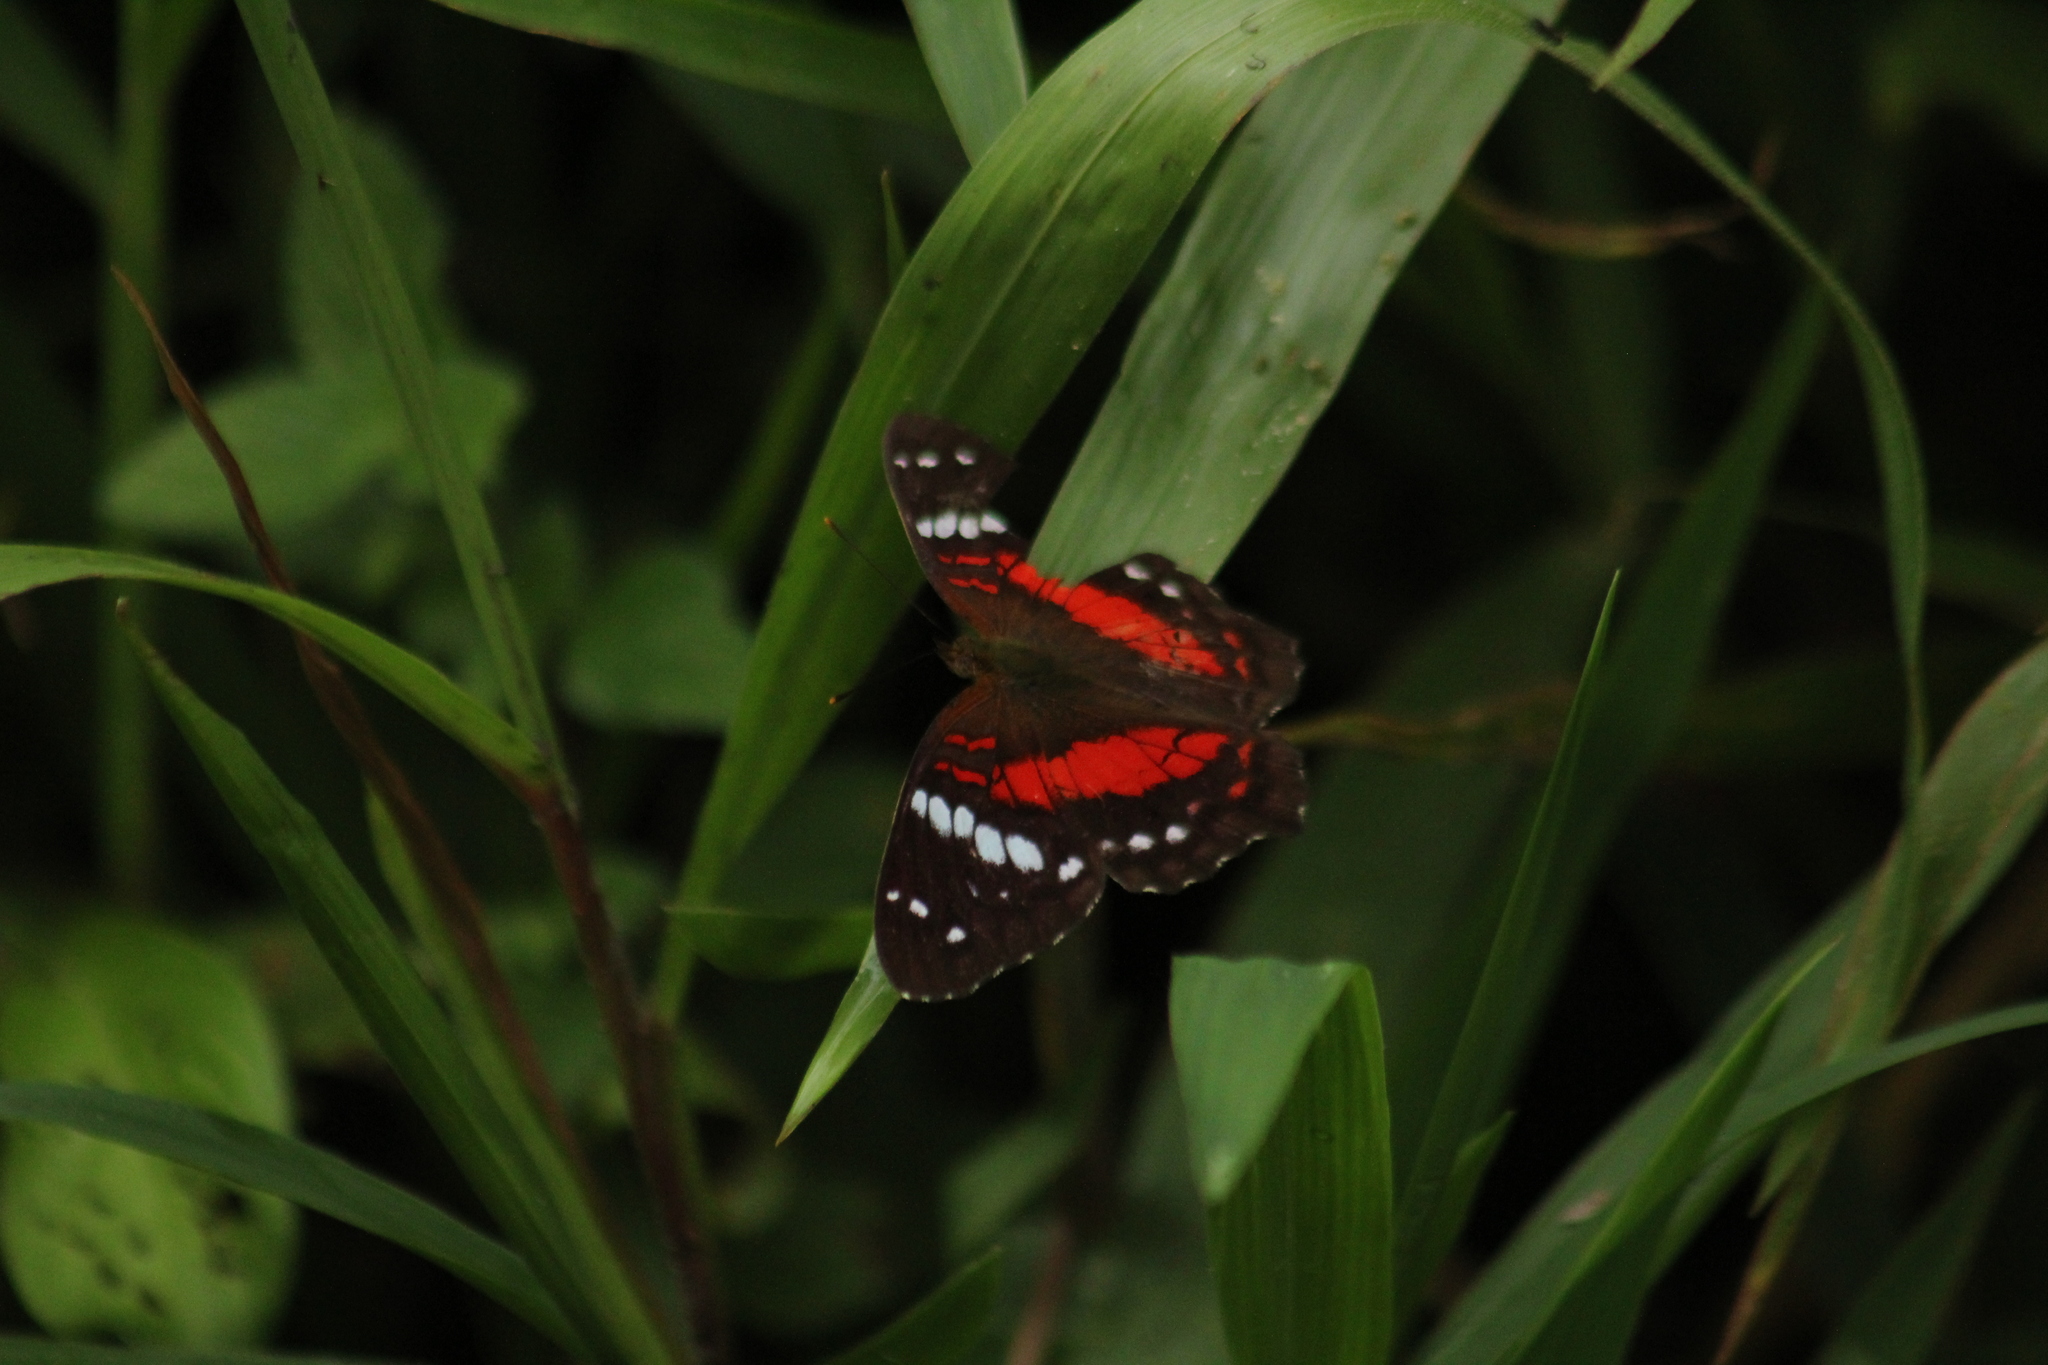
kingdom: Animalia
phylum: Arthropoda
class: Insecta
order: Lepidoptera
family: Nymphalidae
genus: Anartia
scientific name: Anartia amathea
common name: Red peacock
